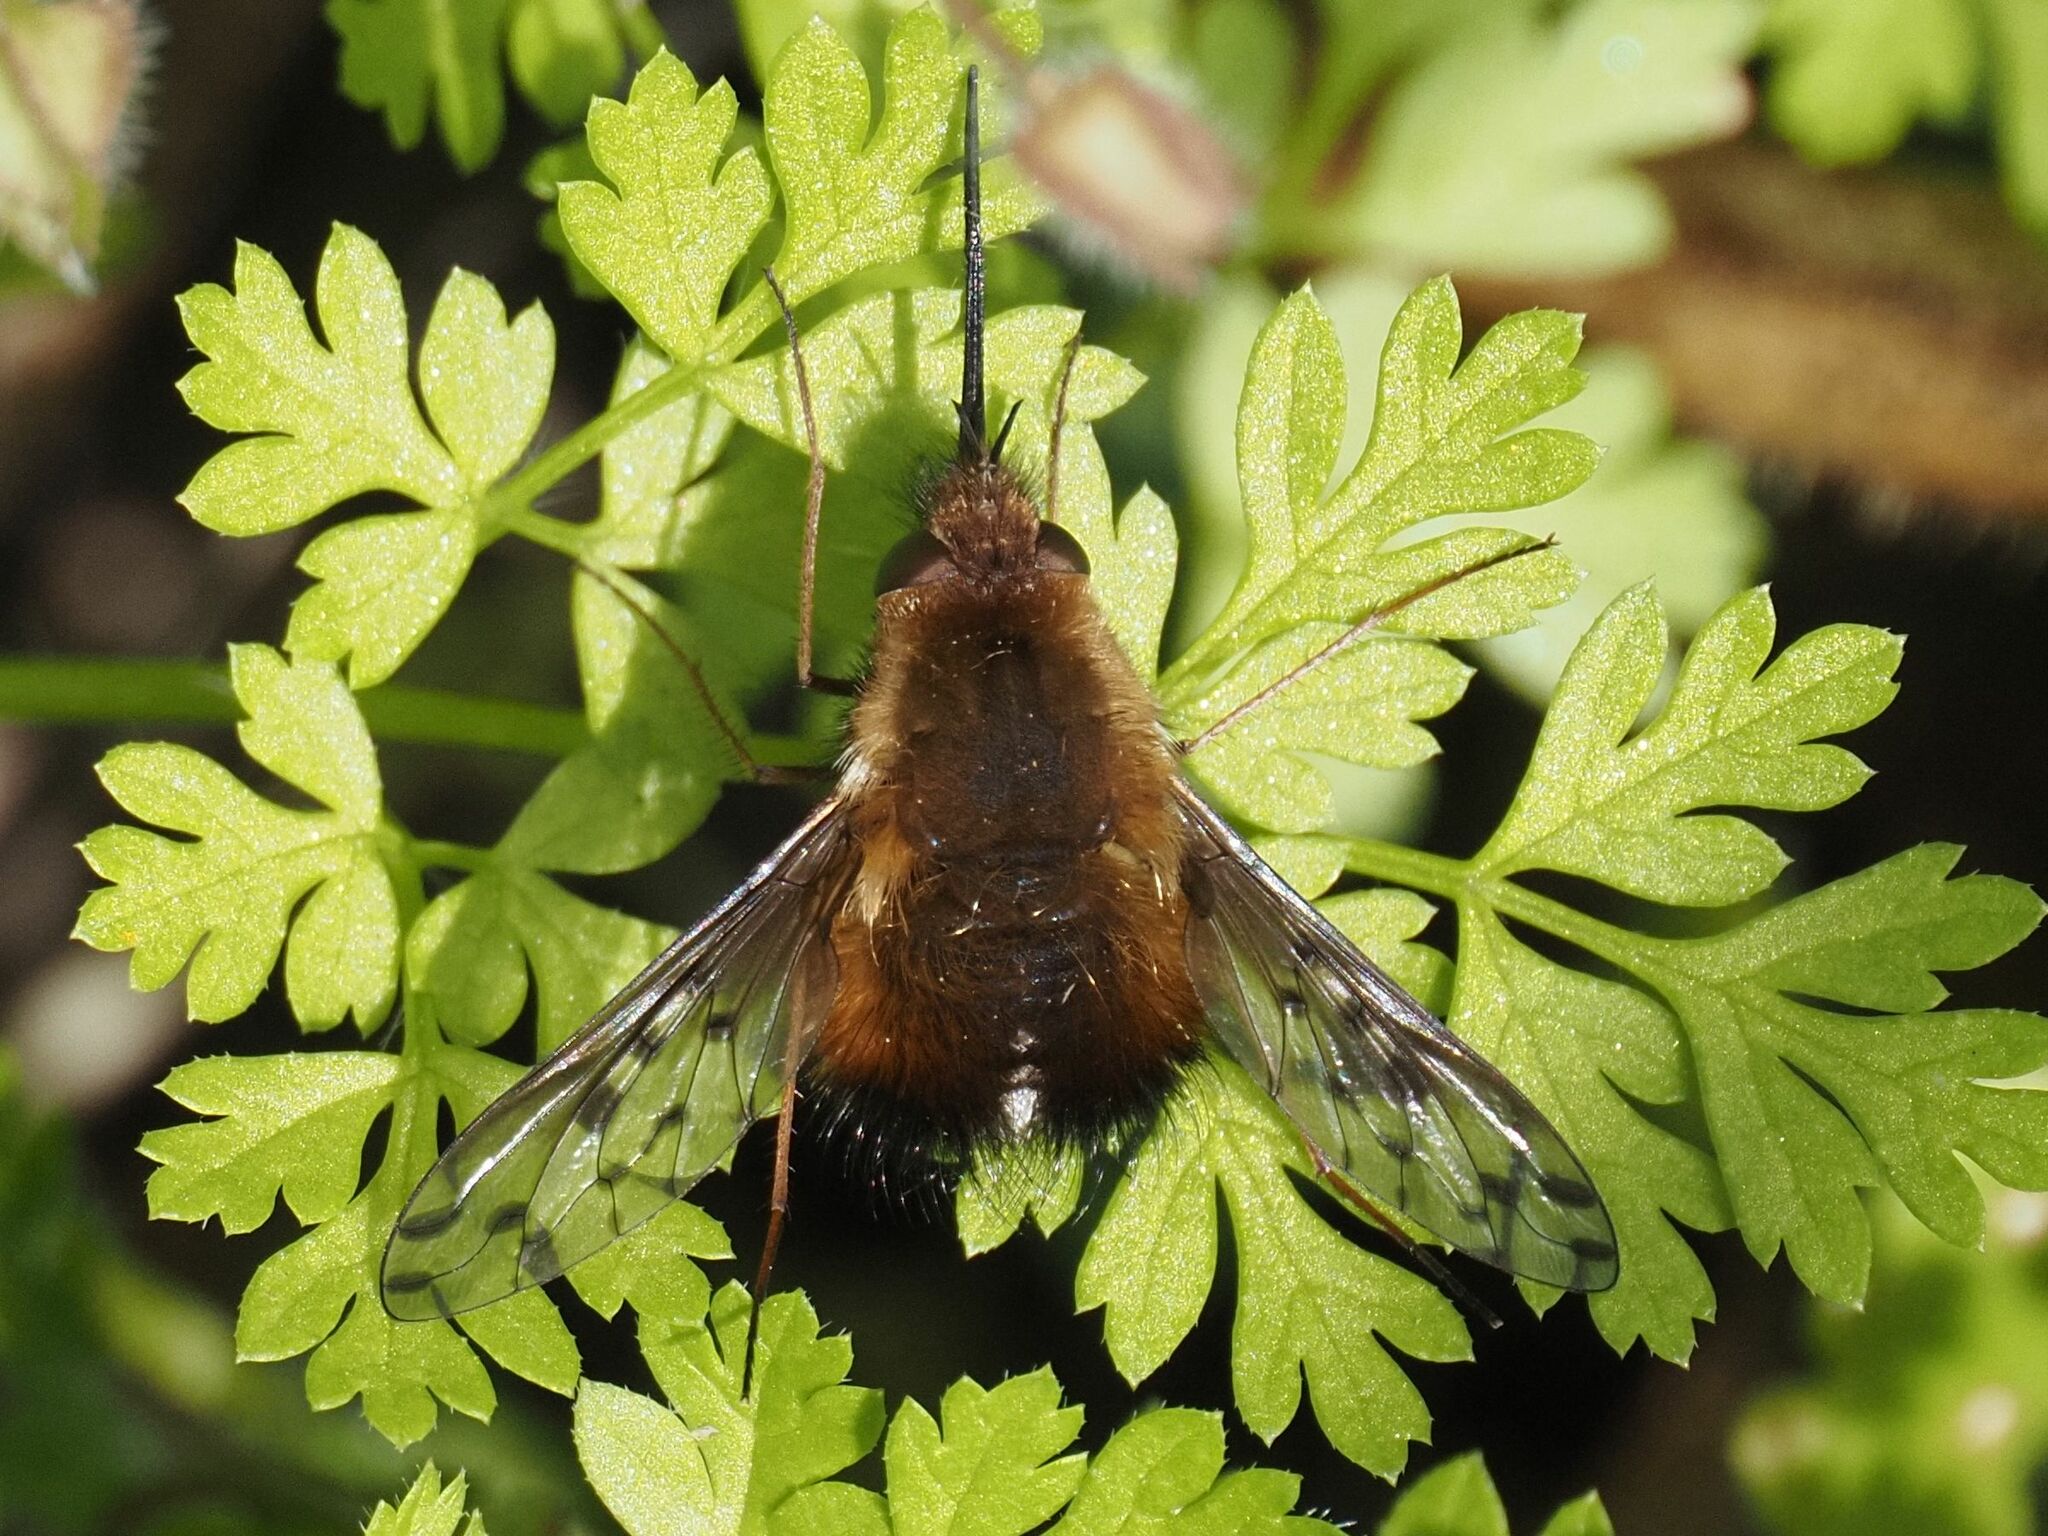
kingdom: Animalia
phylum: Arthropoda
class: Insecta
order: Diptera
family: Bombyliidae
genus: Bombylius
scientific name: Bombylius discolor
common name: Dotted bee-fly
